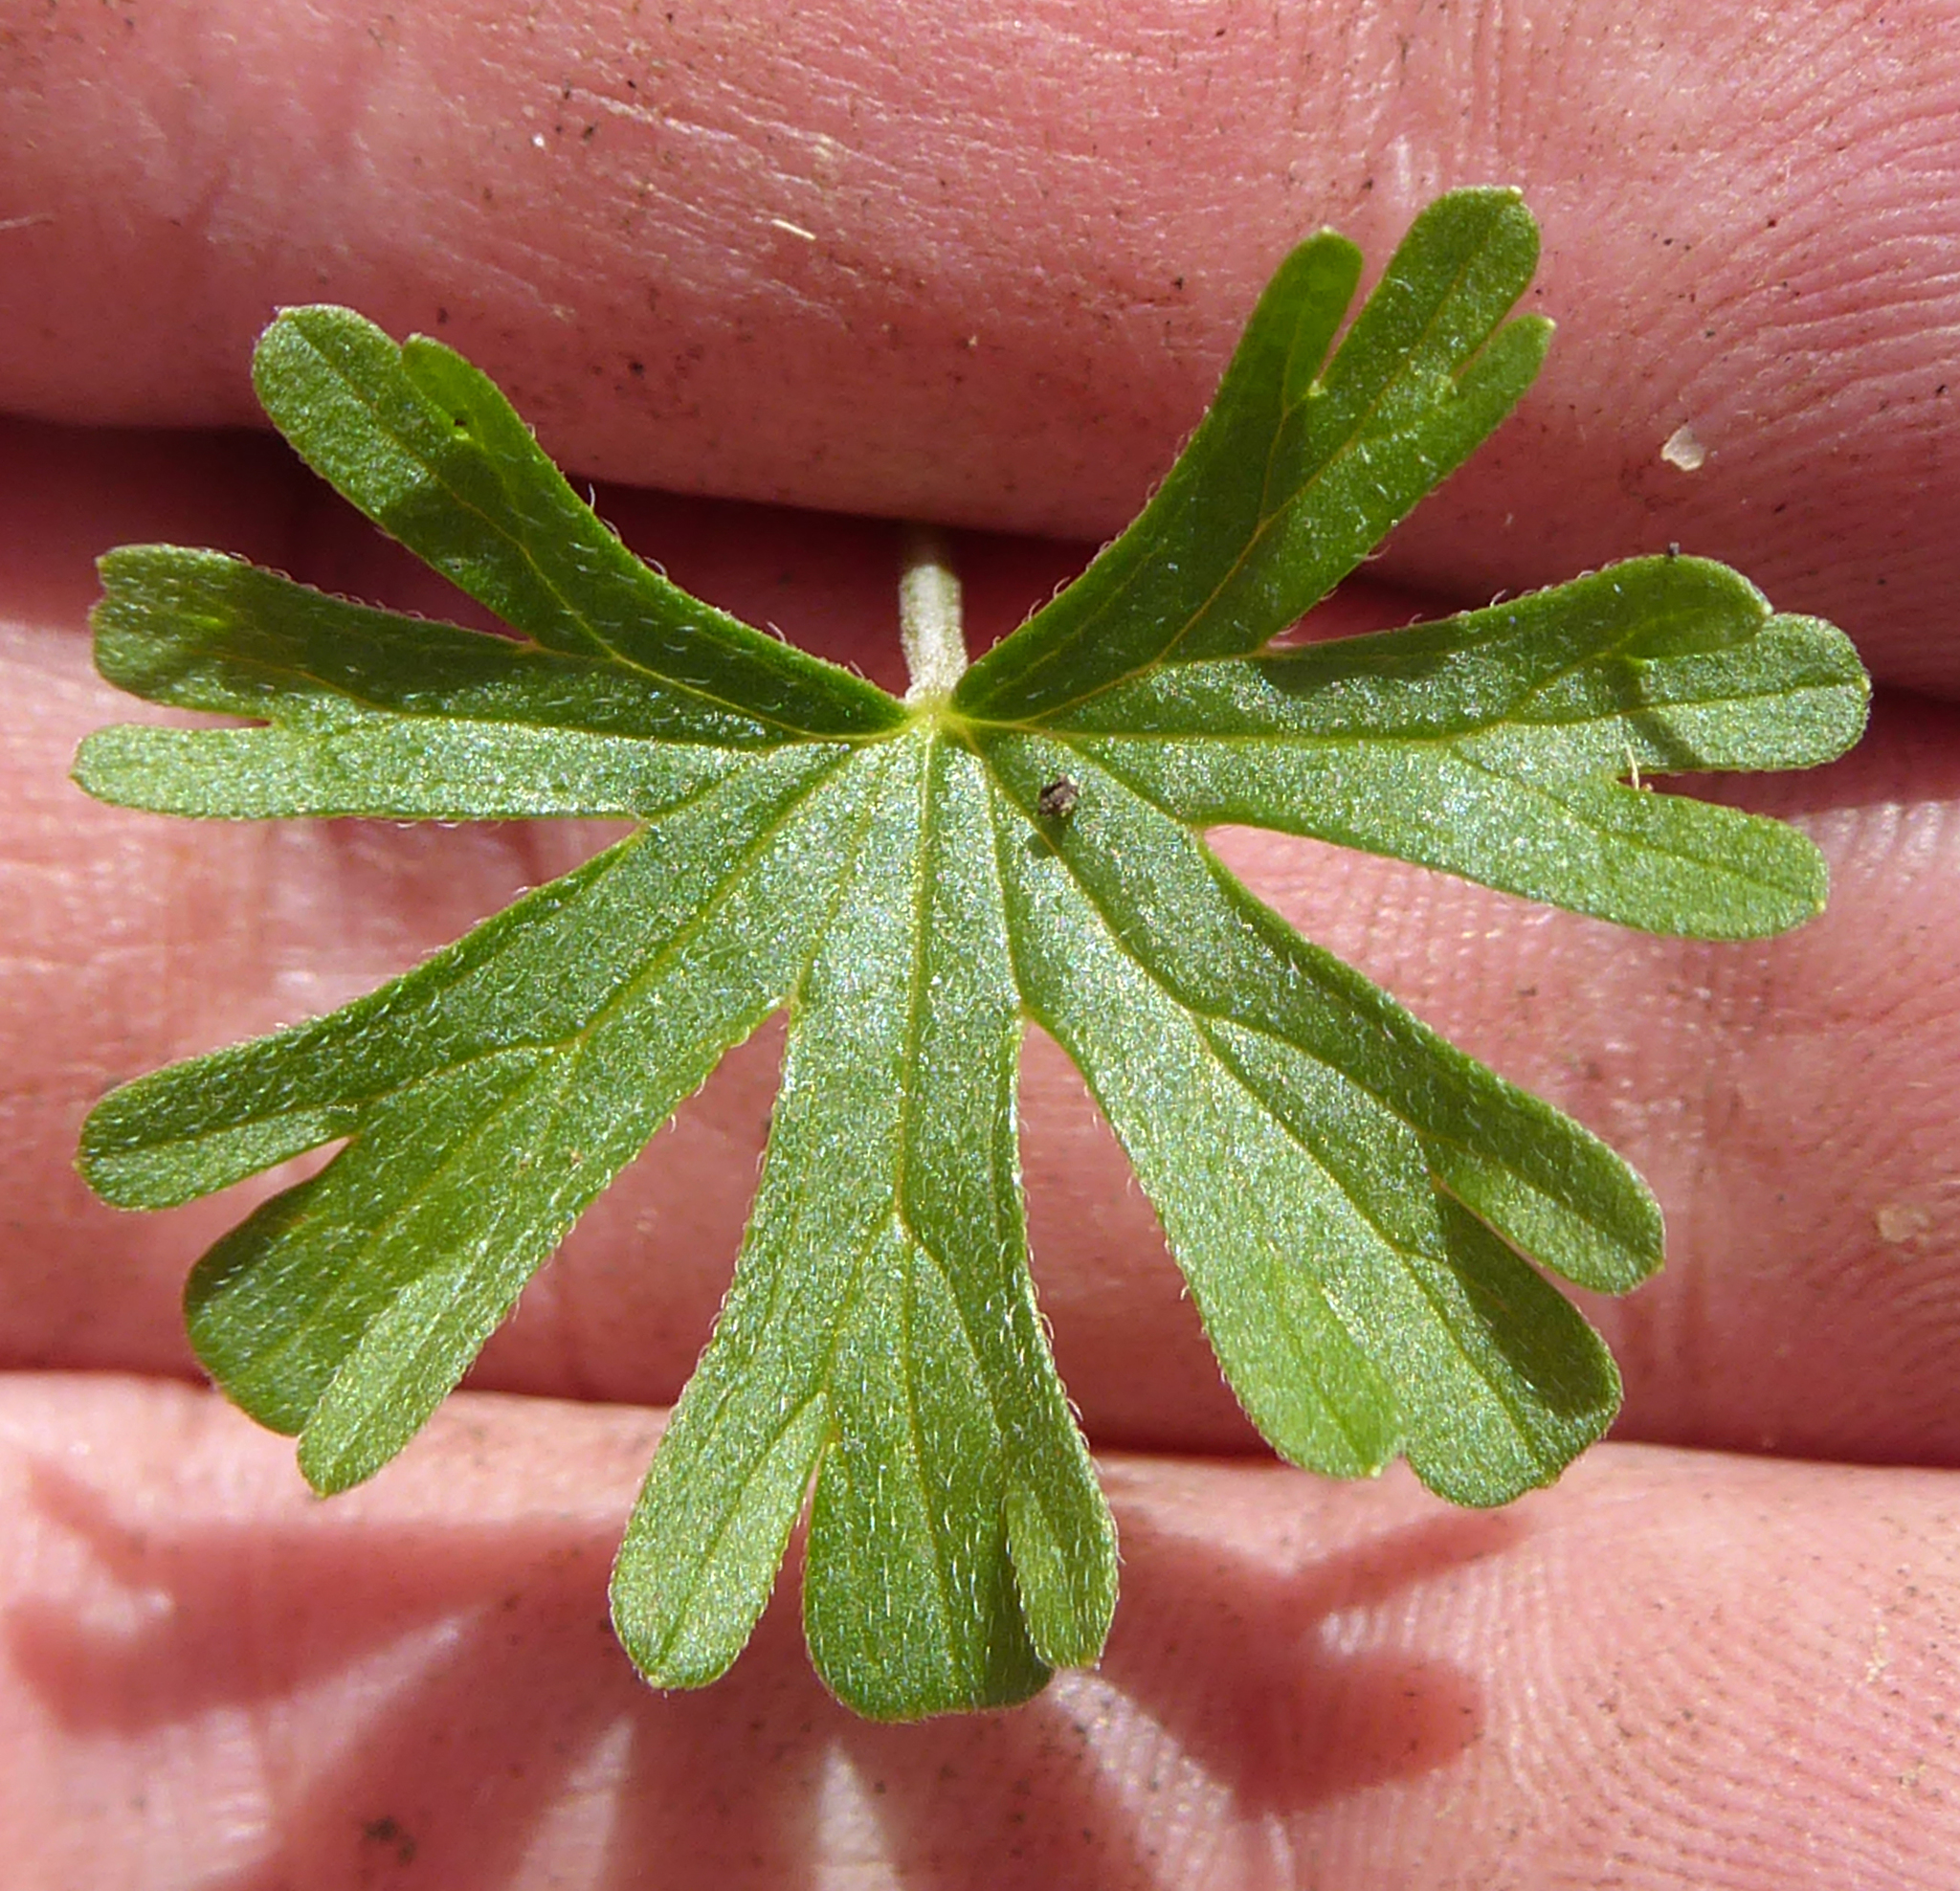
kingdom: Plantae
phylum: Tracheophyta
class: Magnoliopsida
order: Geraniales
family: Geraniaceae
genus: Geranium
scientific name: Geranium retrorsum
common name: New zealand geranium
